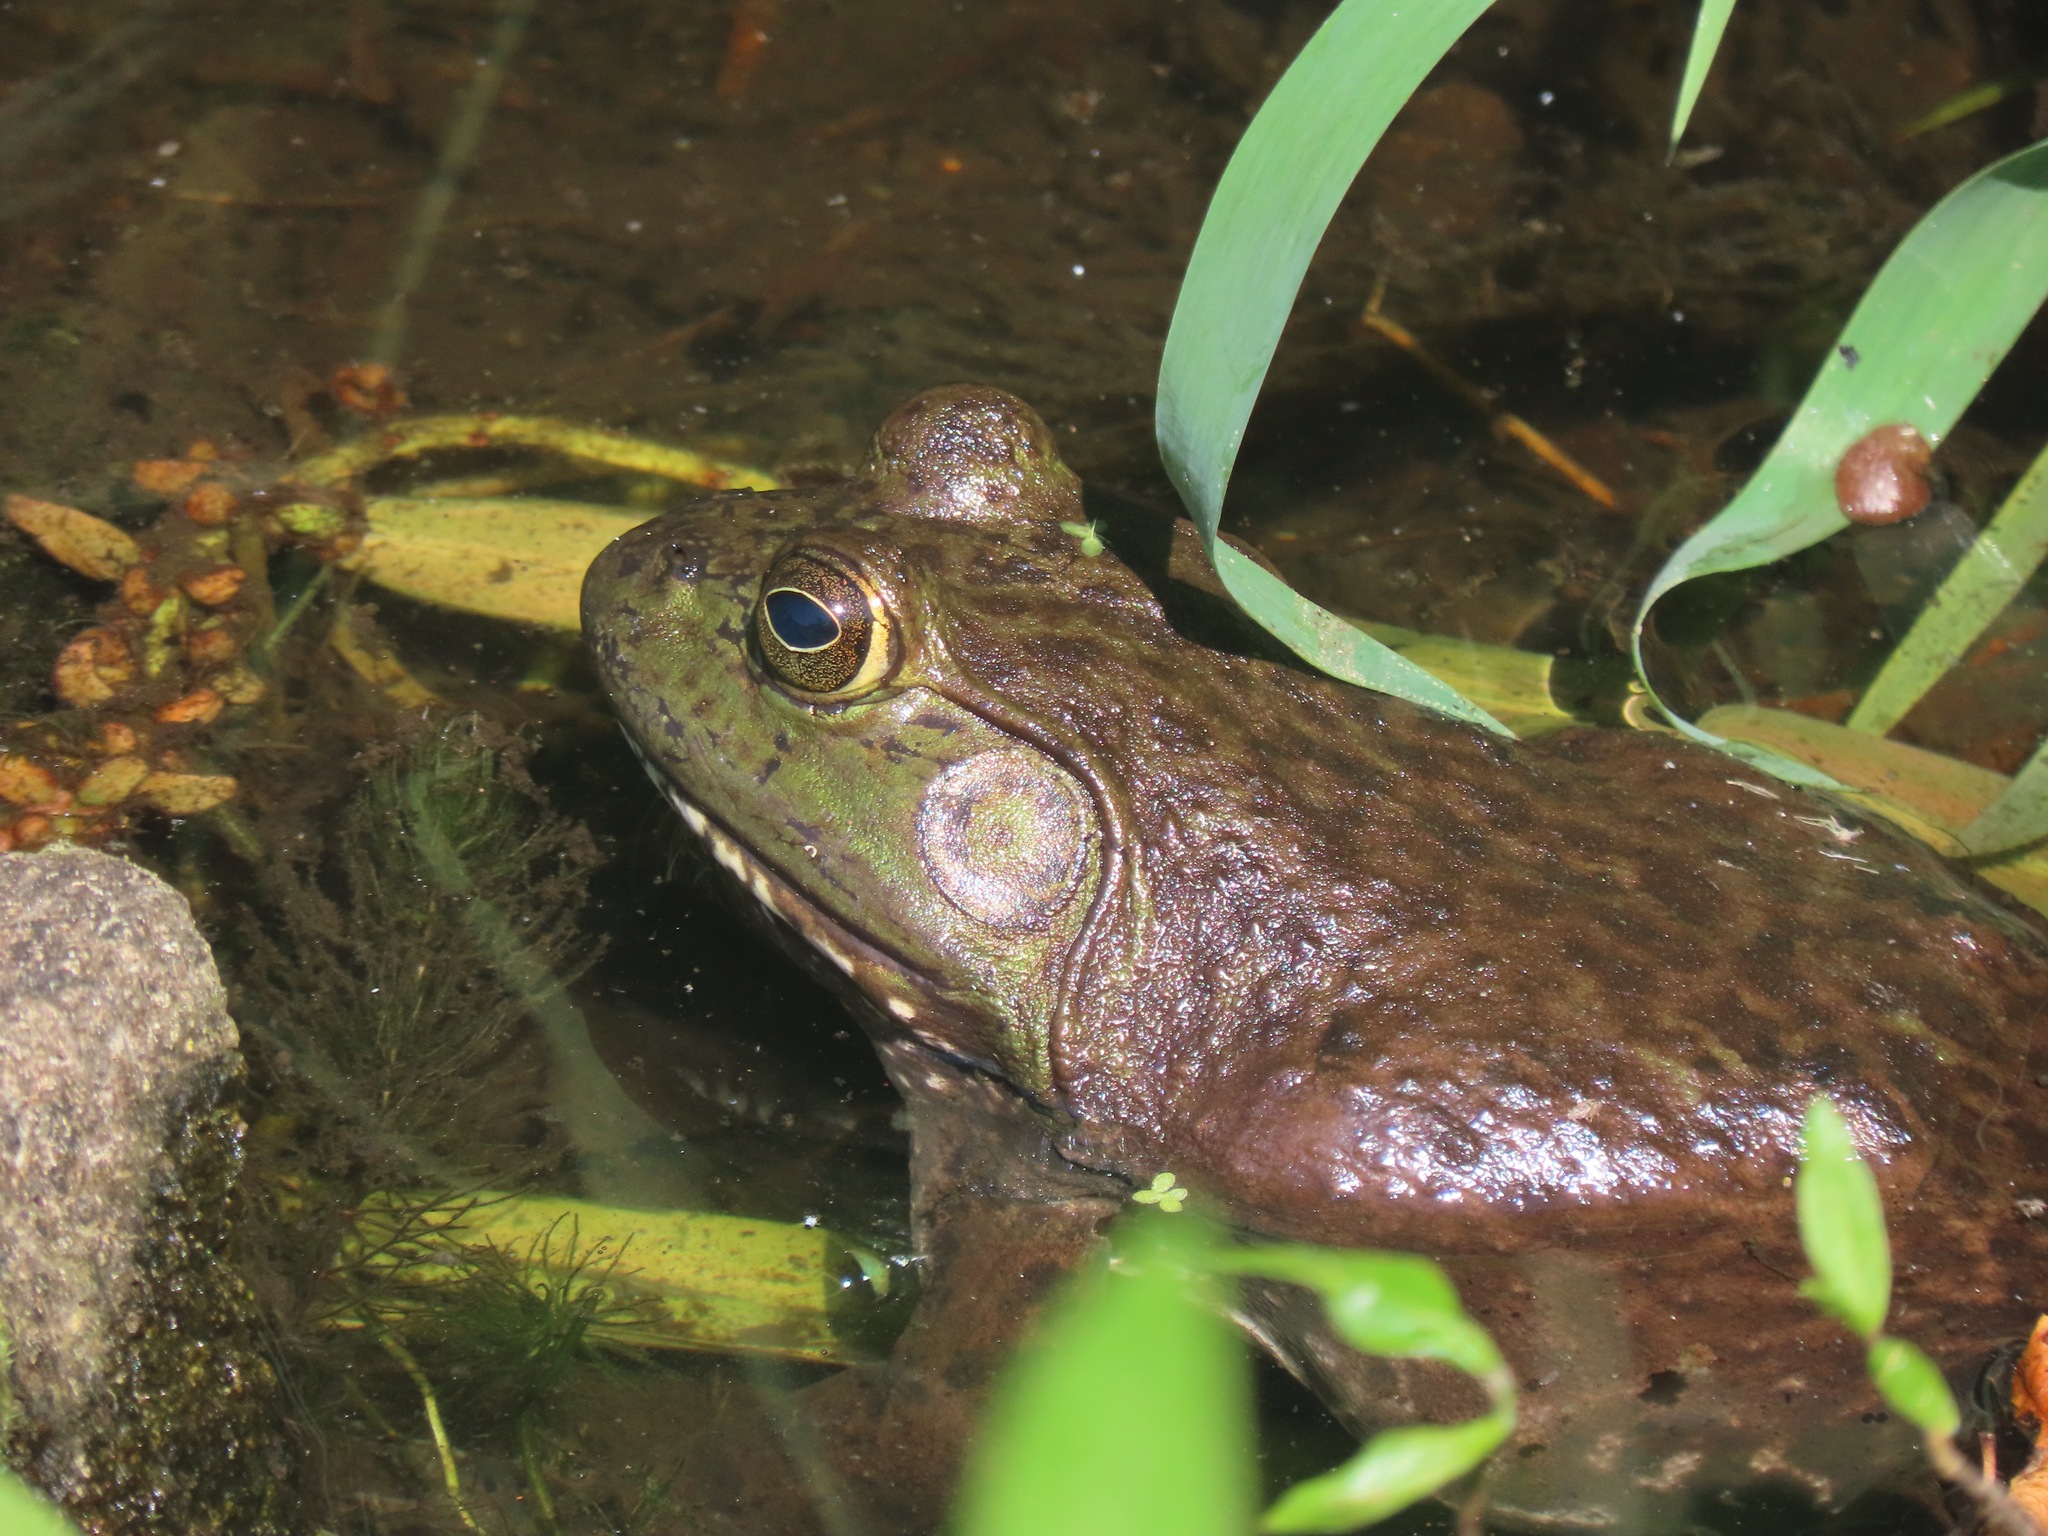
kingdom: Animalia
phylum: Chordata
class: Amphibia
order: Anura
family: Ranidae
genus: Lithobates
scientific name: Lithobates catesbeianus
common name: American bullfrog
